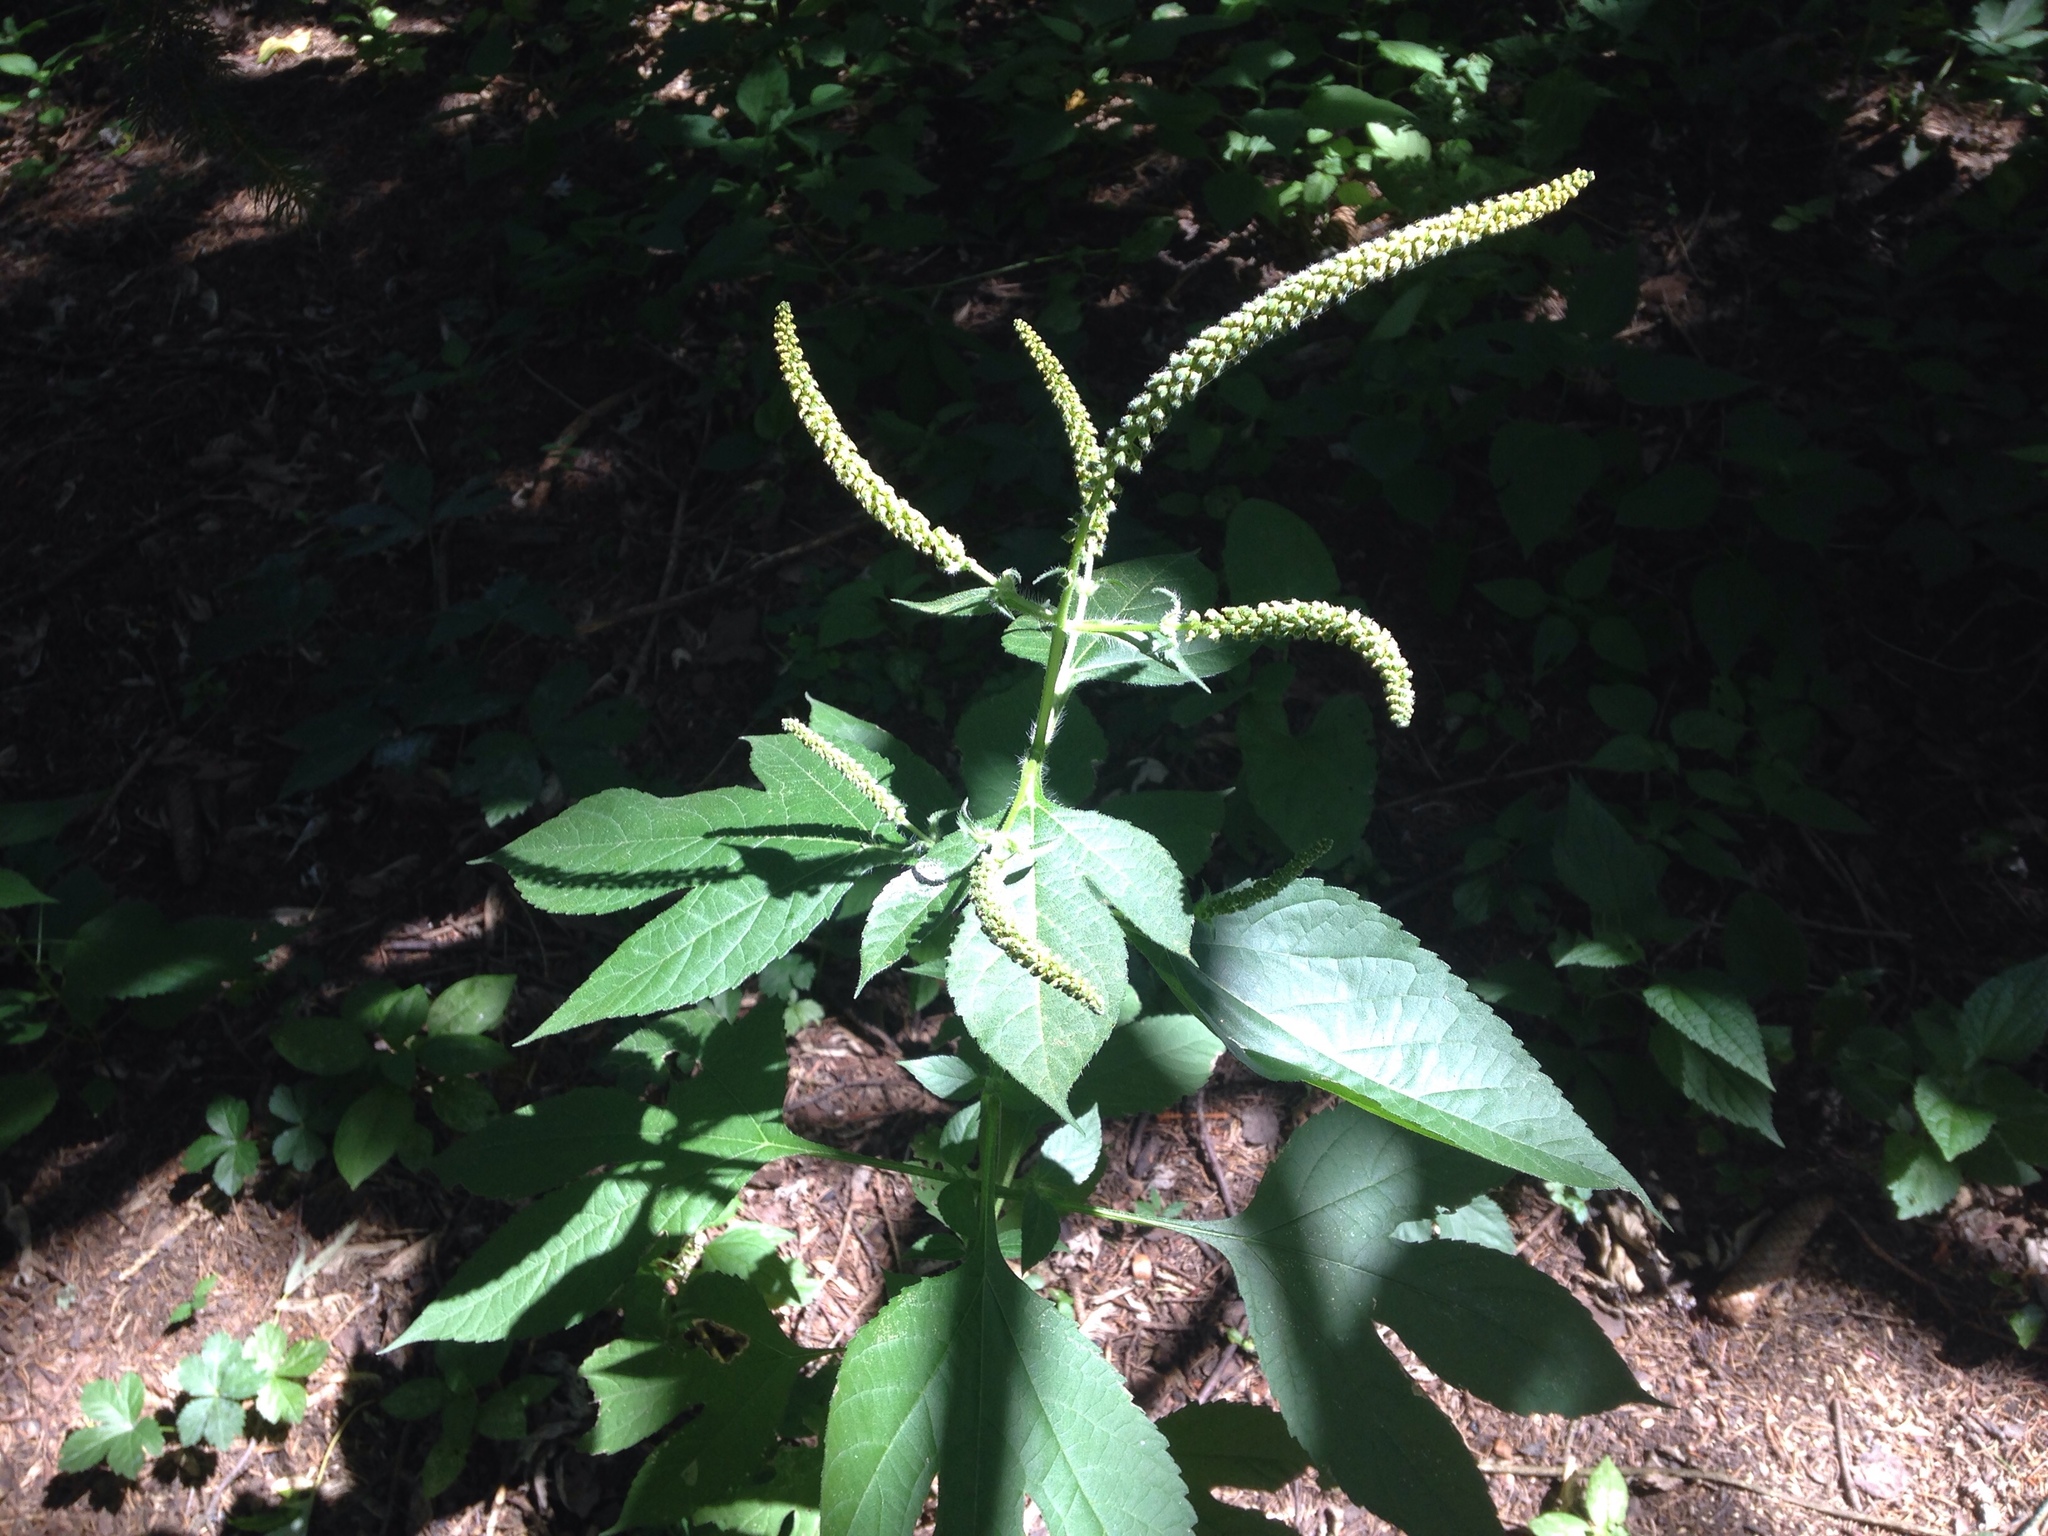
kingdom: Plantae
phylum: Tracheophyta
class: Magnoliopsida
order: Asterales
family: Asteraceae
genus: Ambrosia
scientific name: Ambrosia trifida
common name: Giant ragweed
